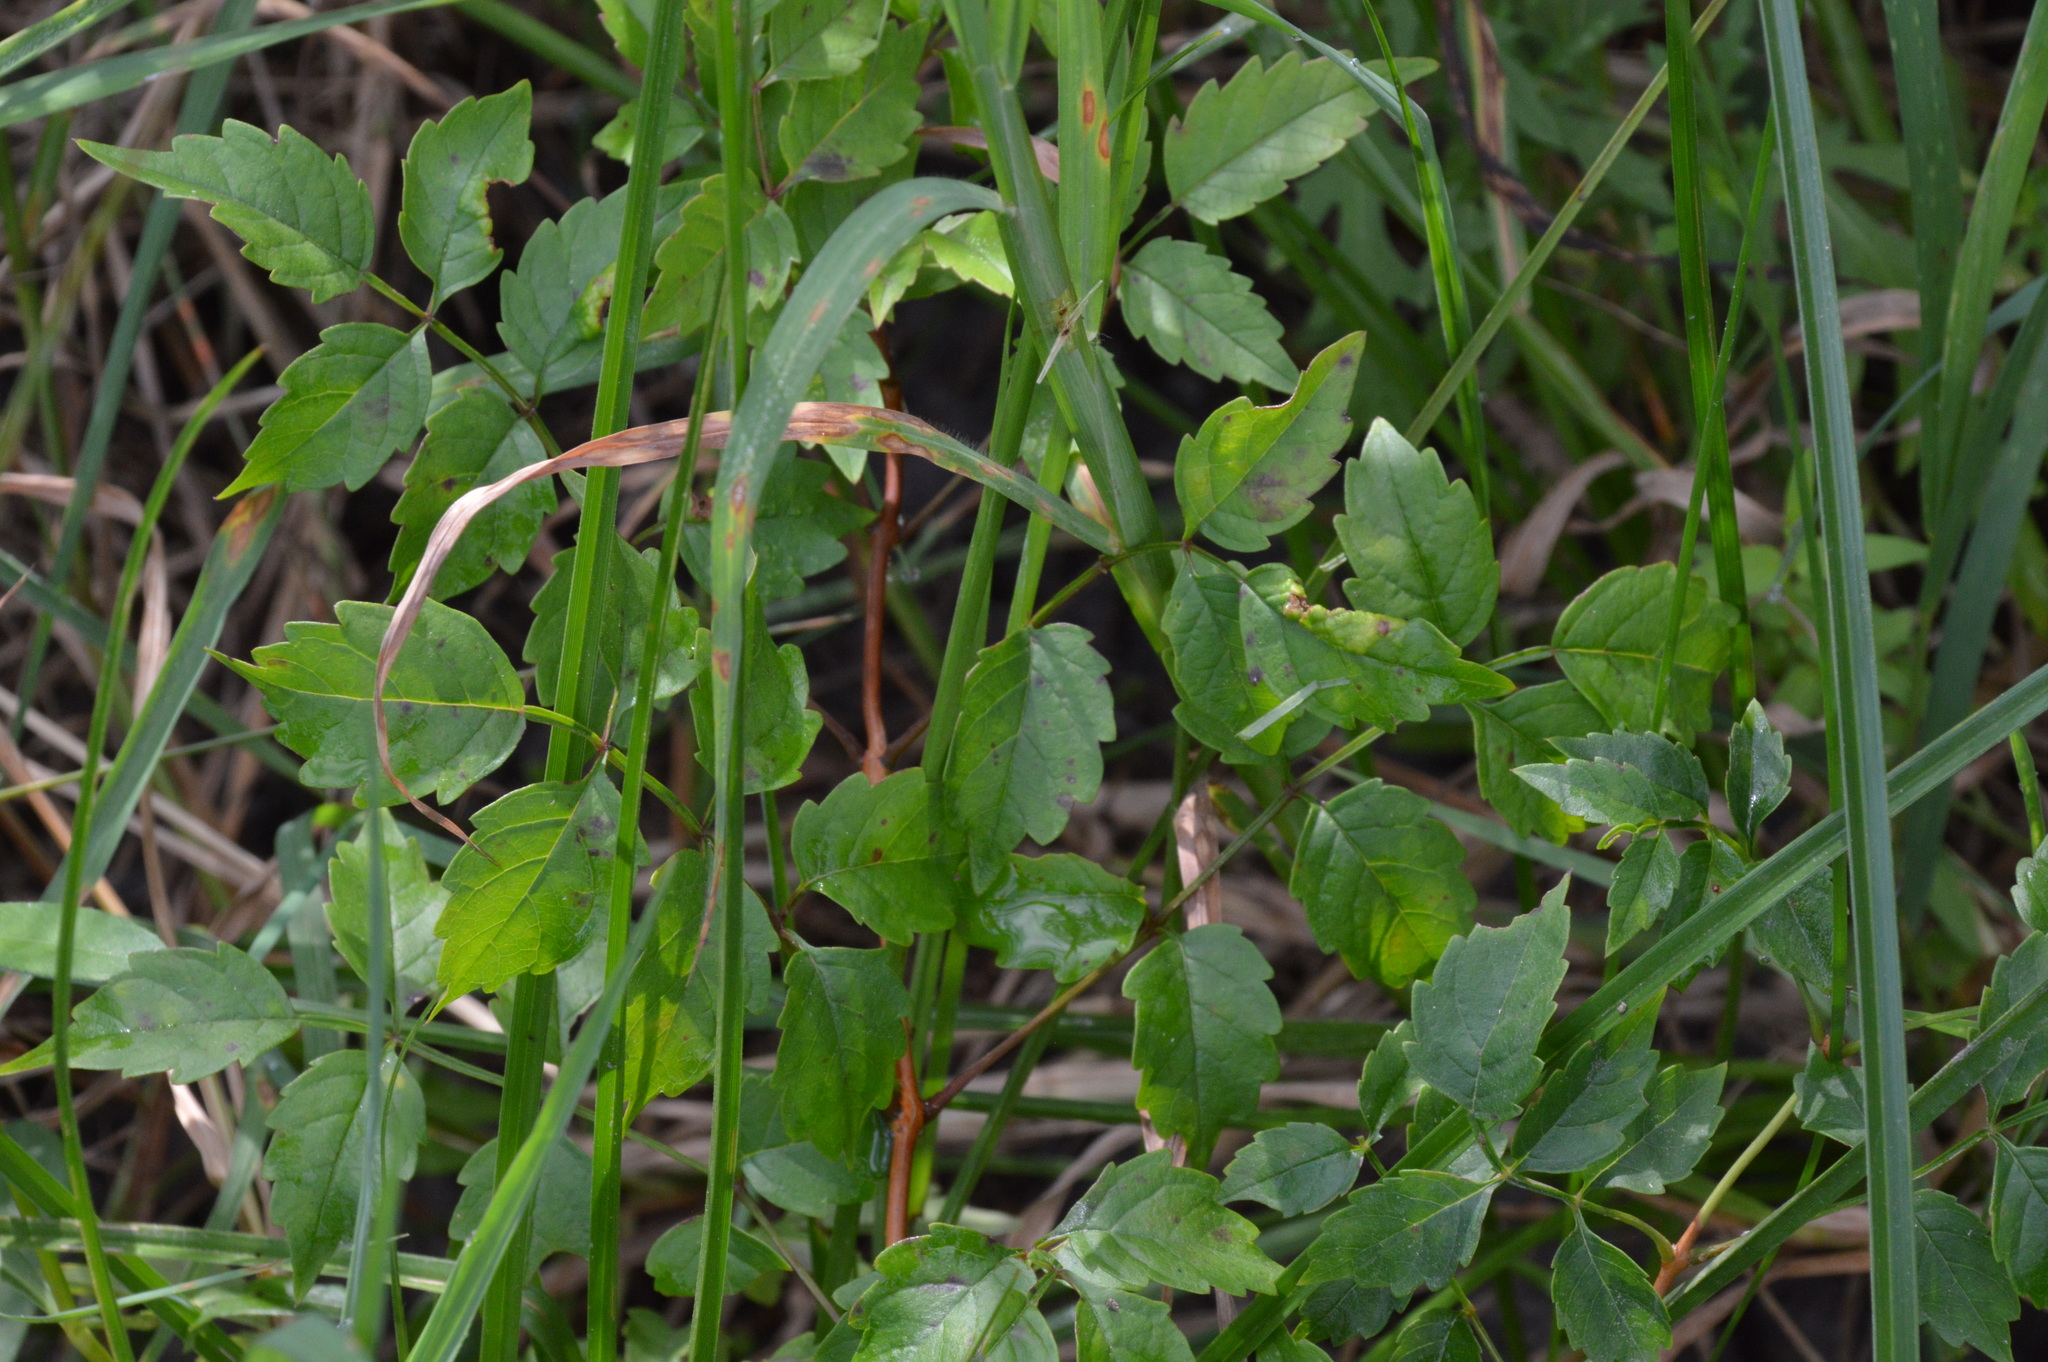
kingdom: Plantae
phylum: Tracheophyta
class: Magnoliopsida
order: Lamiales
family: Bignoniaceae
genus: Campsis
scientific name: Campsis radicans
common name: Trumpet-creeper
